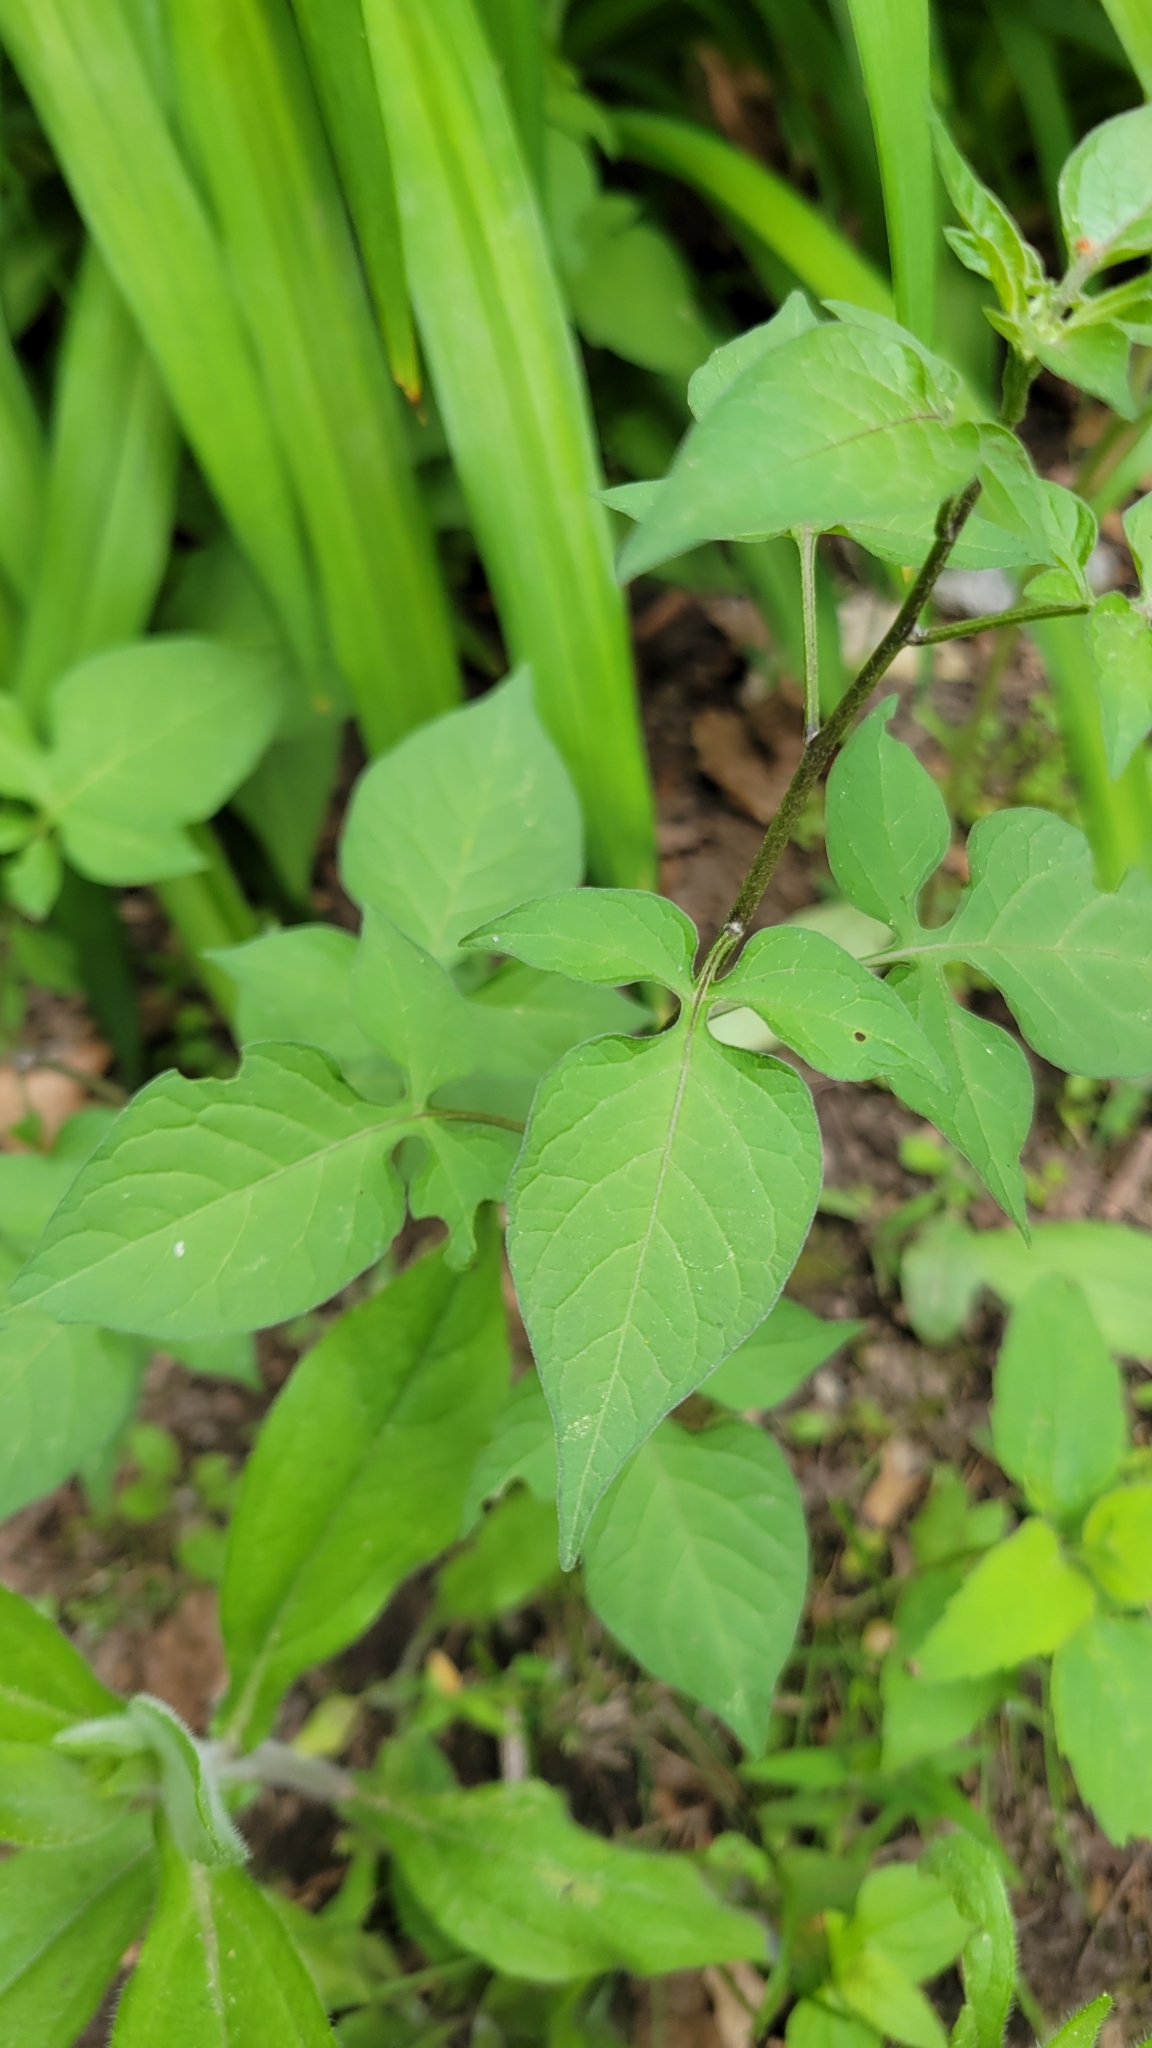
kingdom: Plantae
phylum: Tracheophyta
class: Magnoliopsida
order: Solanales
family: Solanaceae
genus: Solanum
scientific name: Solanum dulcamara
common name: Climbing nightshade
